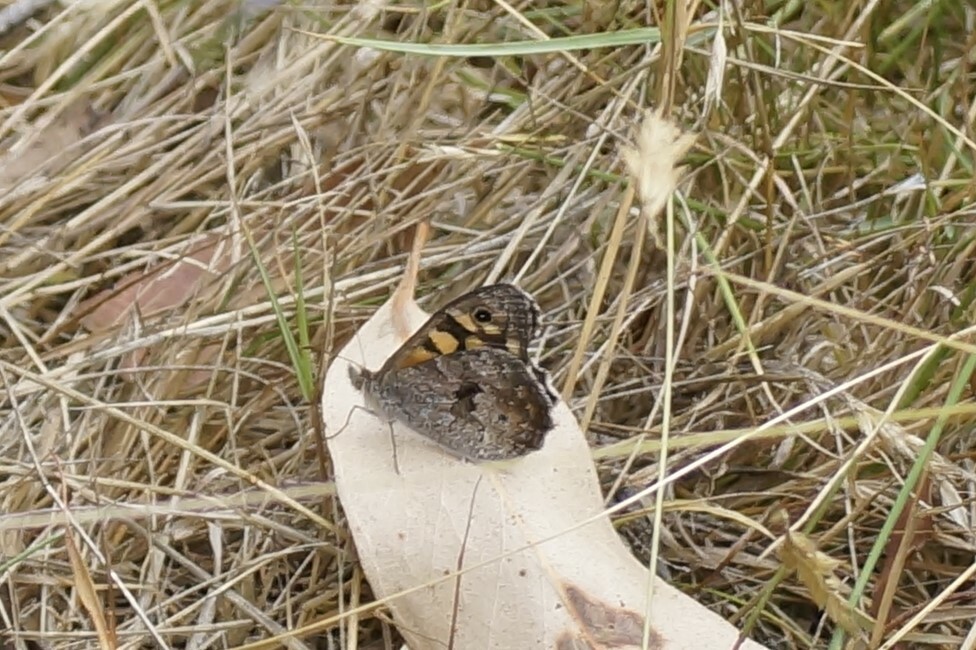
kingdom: Animalia
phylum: Arthropoda
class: Insecta
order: Lepidoptera
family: Nymphalidae
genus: Geitoneura
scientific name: Geitoneura klugii
